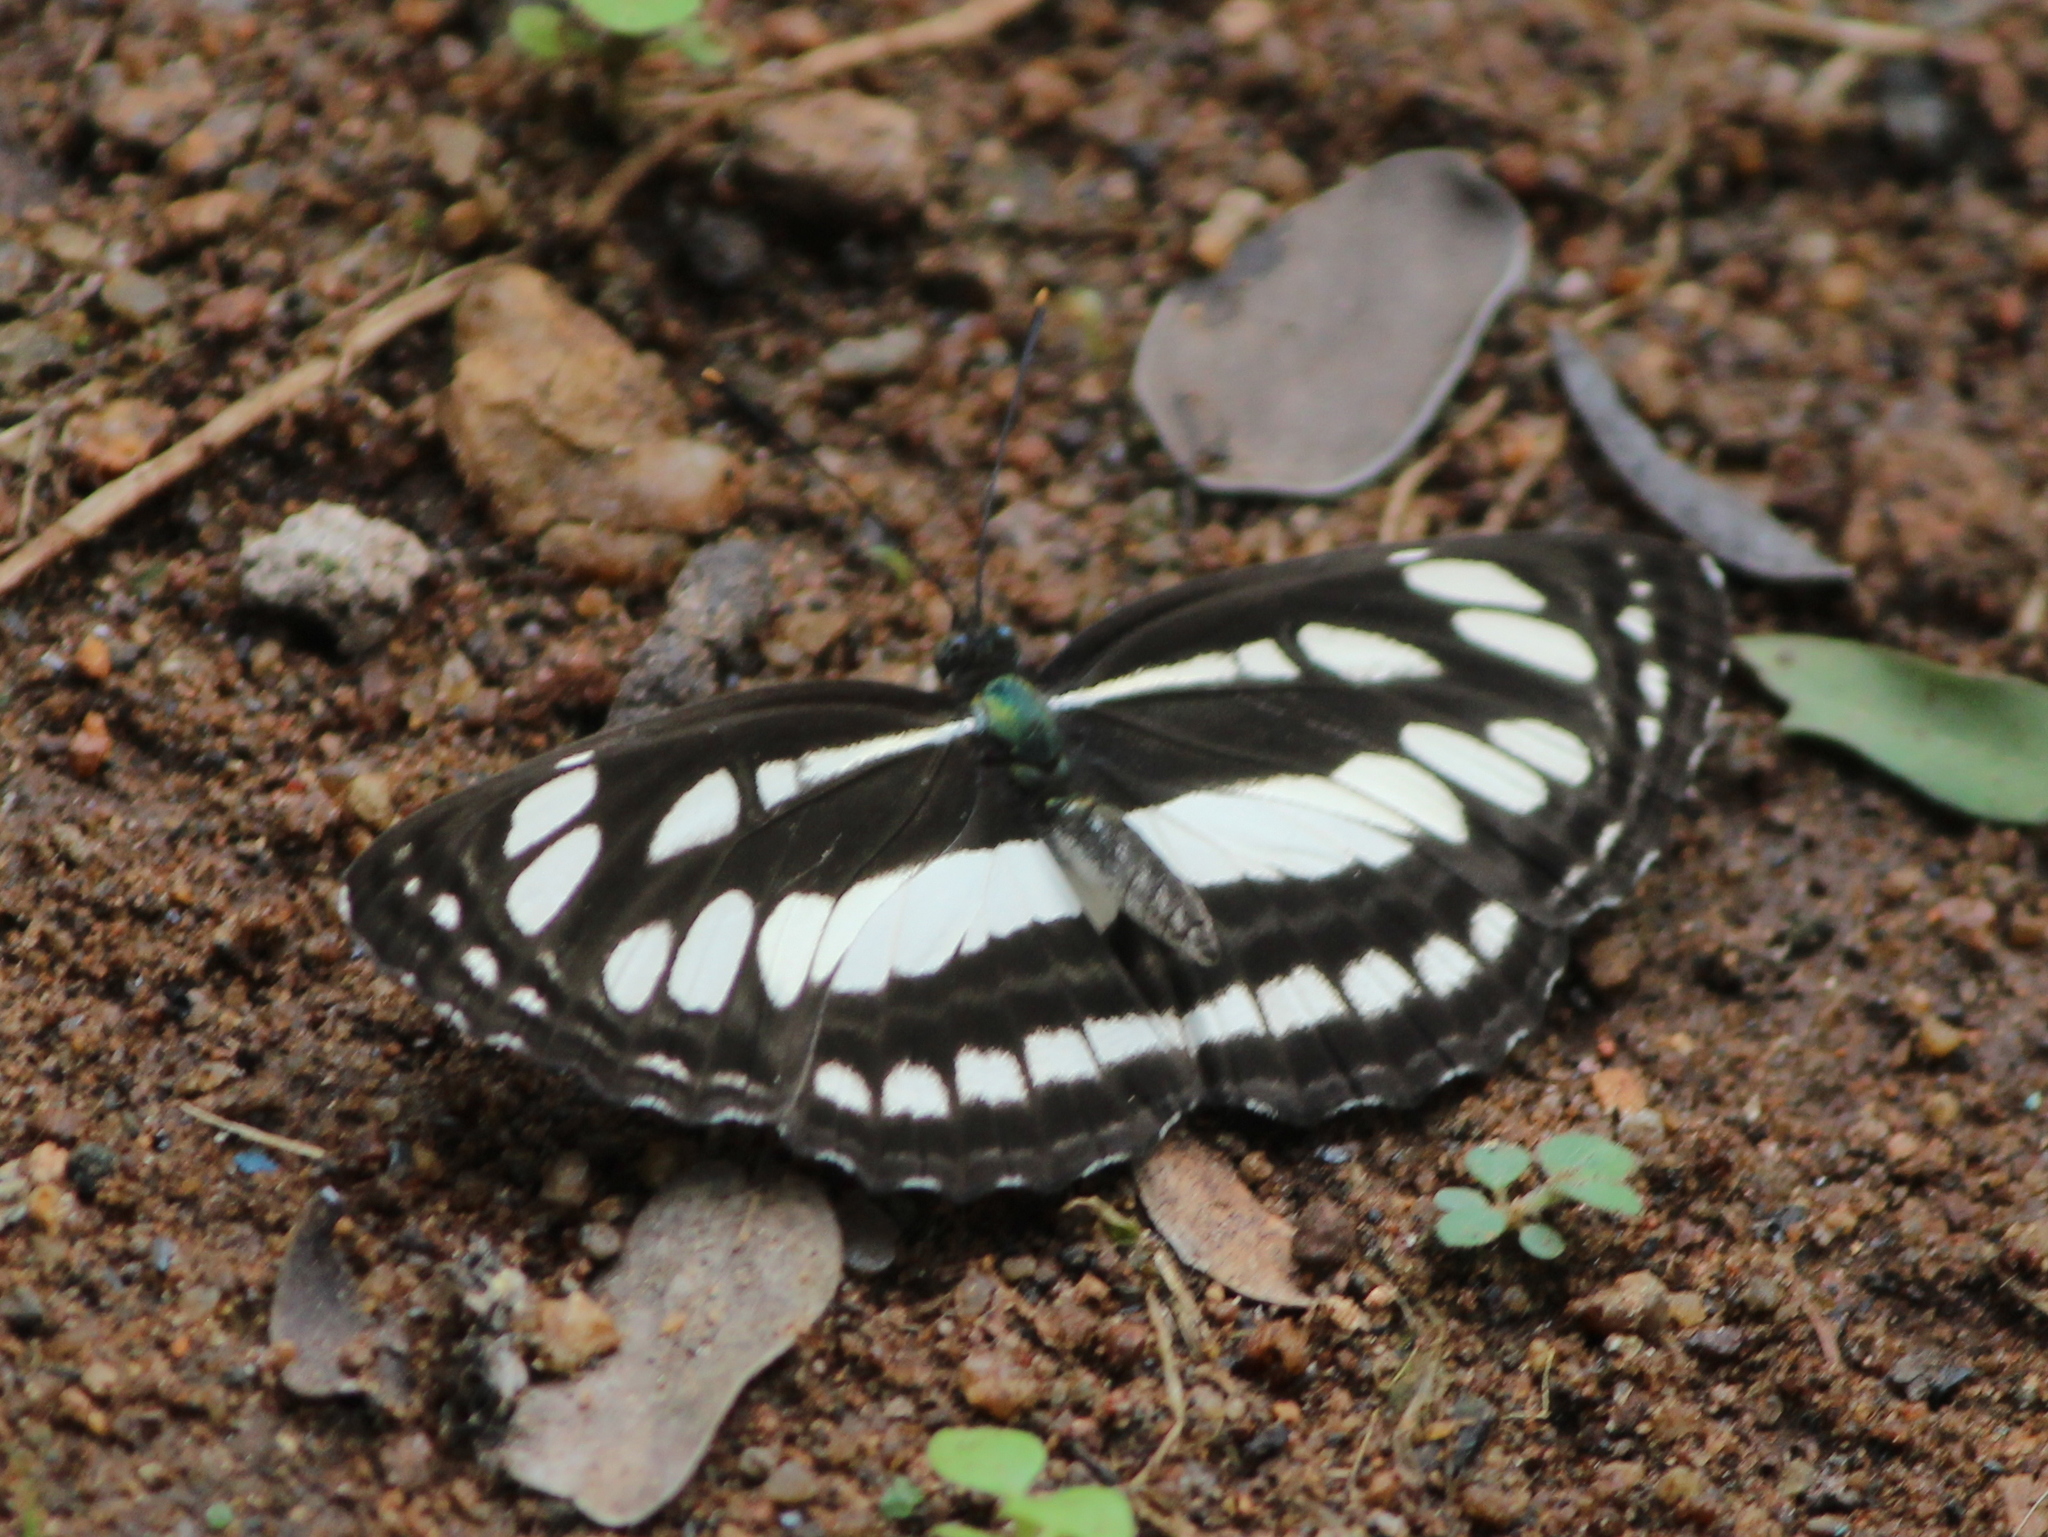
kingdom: Animalia
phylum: Arthropoda
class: Insecta
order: Lepidoptera
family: Nymphalidae
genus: Neptis
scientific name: Neptis hylas
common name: Common sailer
